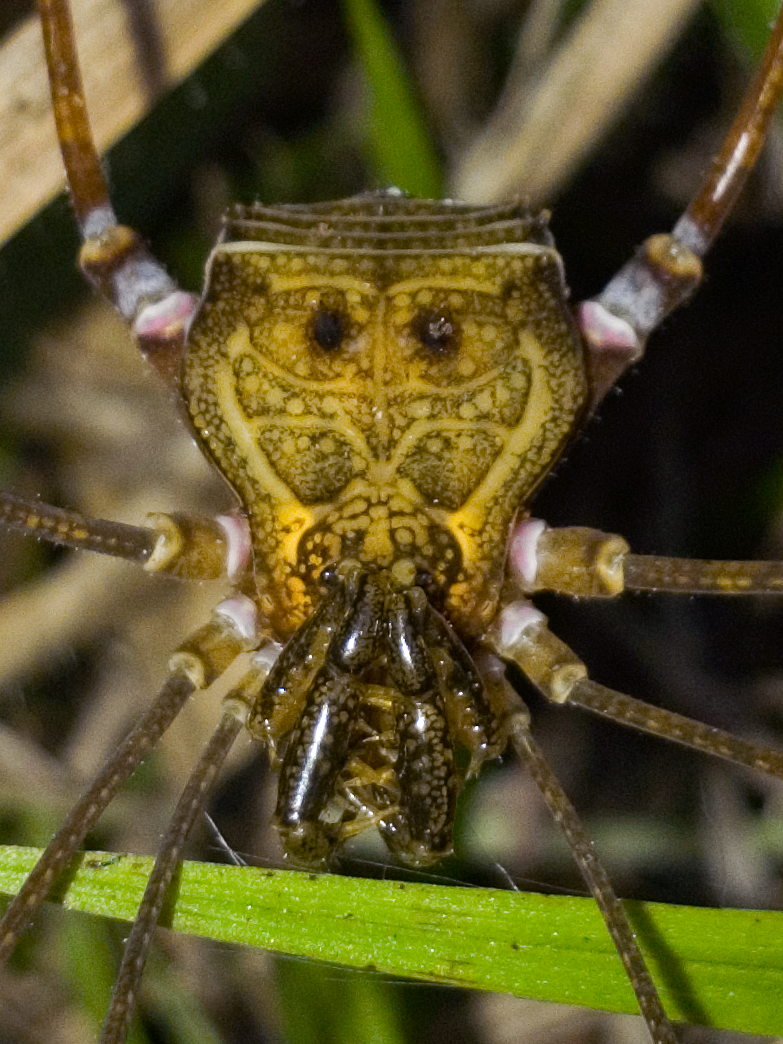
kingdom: Animalia
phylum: Arthropoda
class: Arachnida
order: Opiliones
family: Gonyleptidae
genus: Goniosoma
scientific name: Goniosoma unicolor
